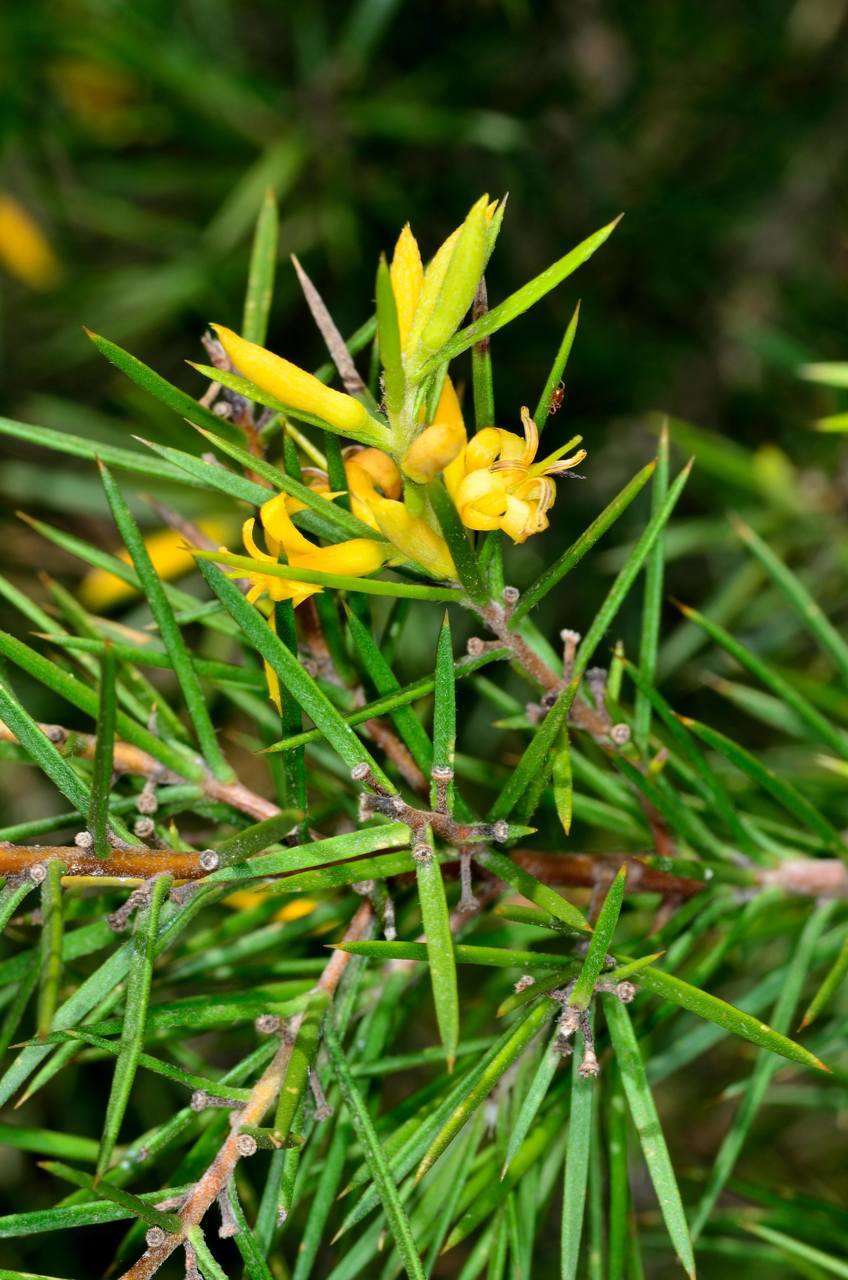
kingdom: Plantae
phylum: Tracheophyta
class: Magnoliopsida
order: Proteales
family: Proteaceae
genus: Persoonia
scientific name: Persoonia juniperina
